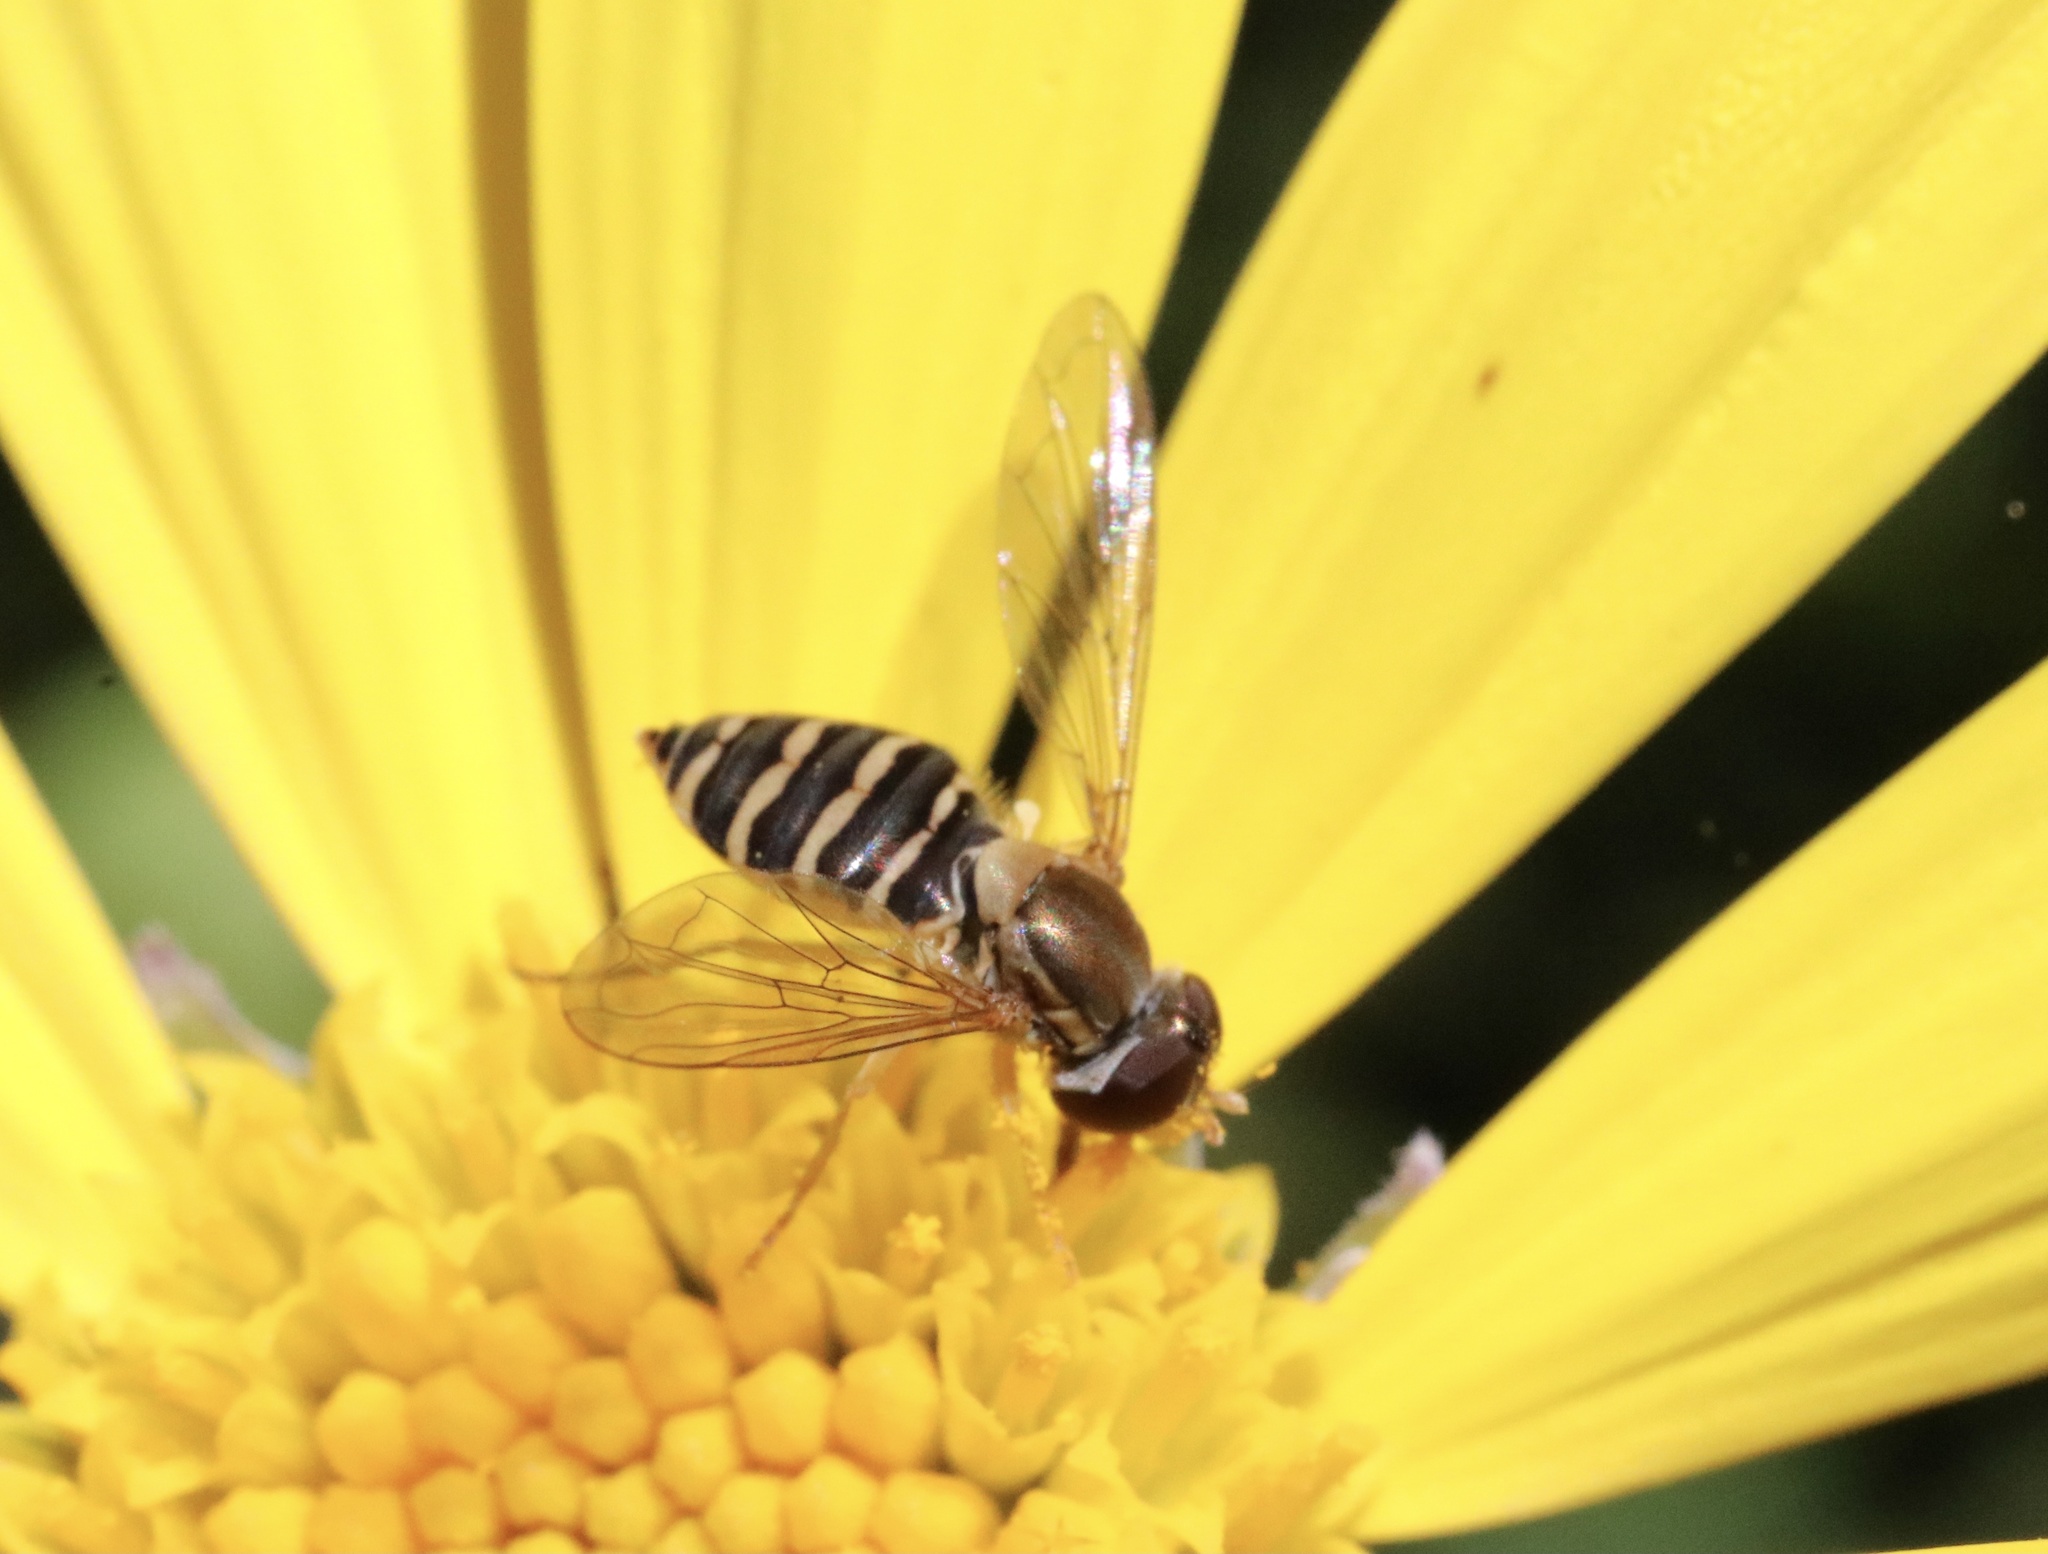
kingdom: Animalia
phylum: Arthropoda
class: Insecta
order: Diptera
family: Syrphidae
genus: Toxomerus
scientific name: Toxomerus calceolatus
